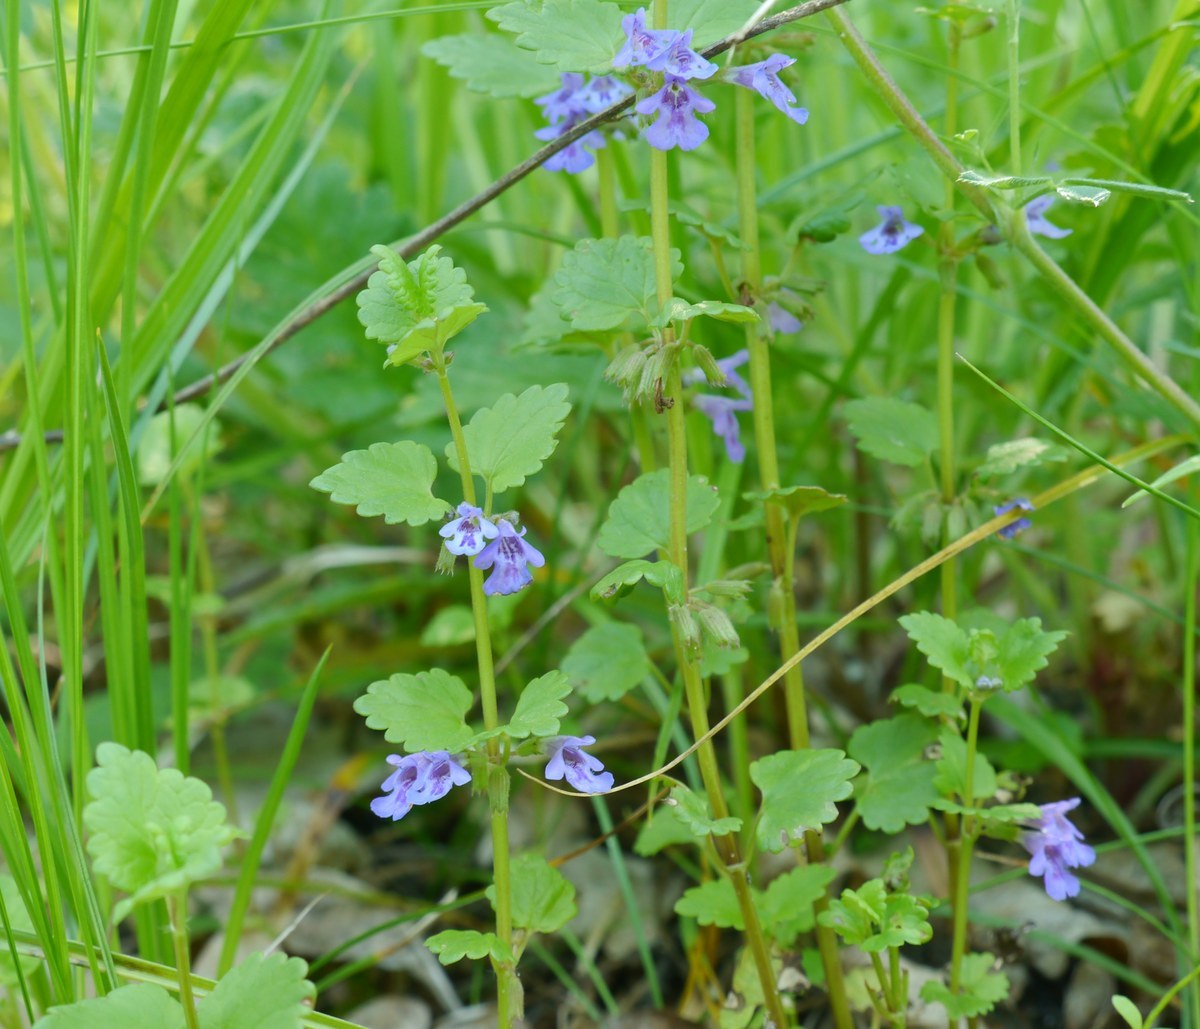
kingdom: Plantae
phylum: Tracheophyta
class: Magnoliopsida
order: Lamiales
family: Lamiaceae
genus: Glechoma
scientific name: Glechoma hederacea
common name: Ground ivy
